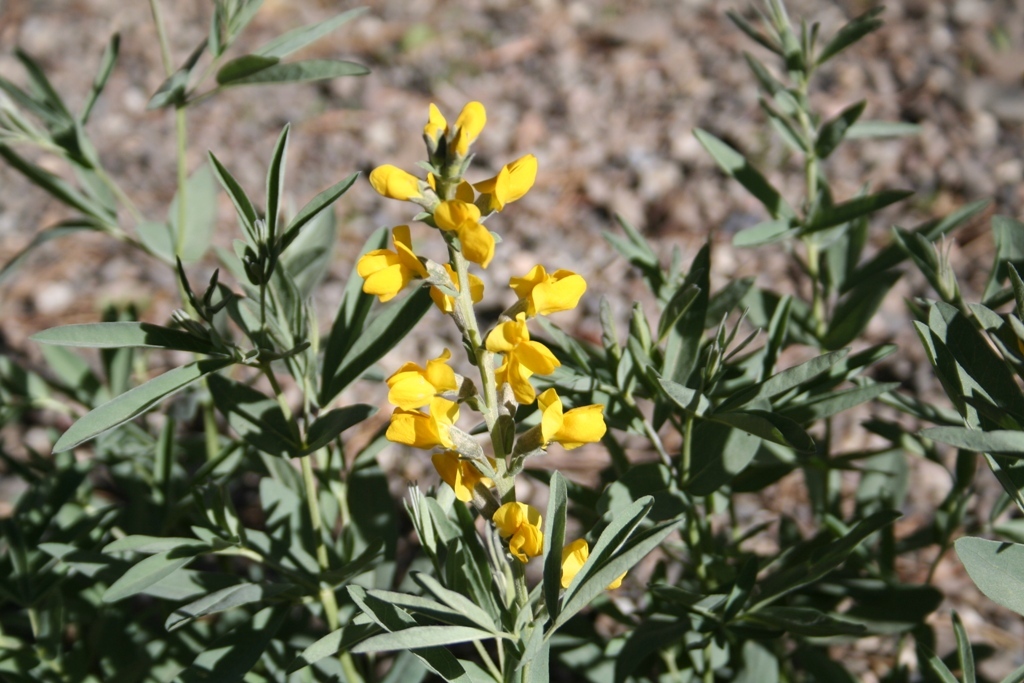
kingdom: Plantae
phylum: Tracheophyta
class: Magnoliopsida
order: Fabales
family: Fabaceae
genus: Thermopsis
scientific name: Thermopsis montana
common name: False lupin
